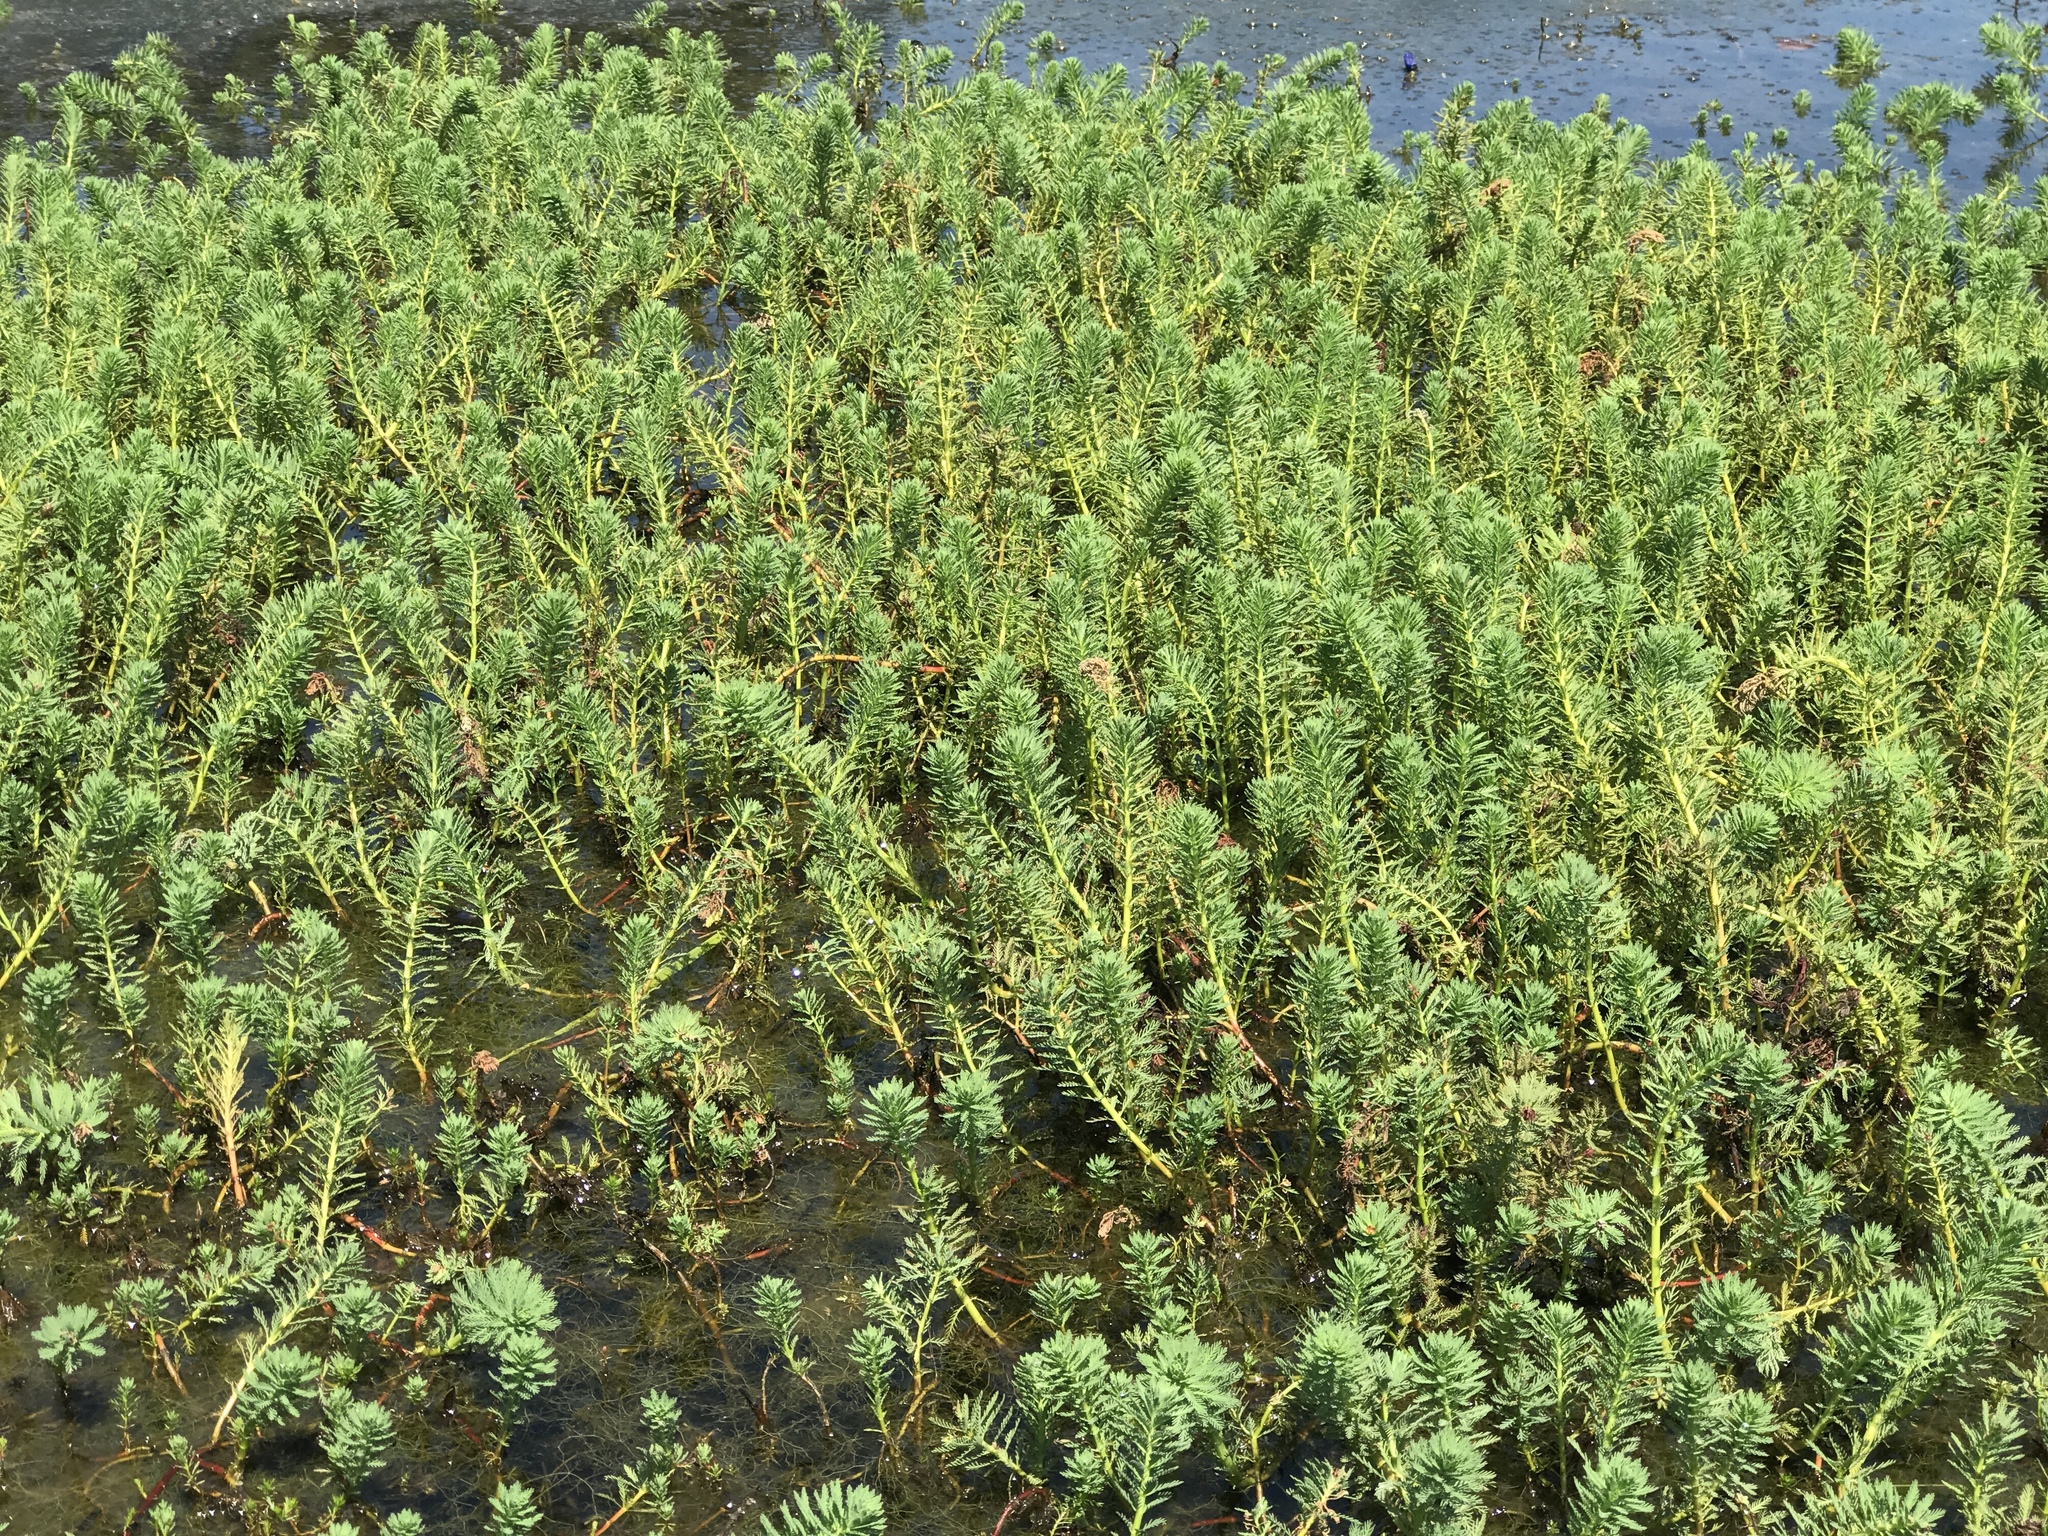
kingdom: Plantae
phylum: Tracheophyta
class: Magnoliopsida
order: Saxifragales
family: Haloragaceae
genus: Myriophyllum
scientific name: Myriophyllum aquaticum
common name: Parrot's feather
